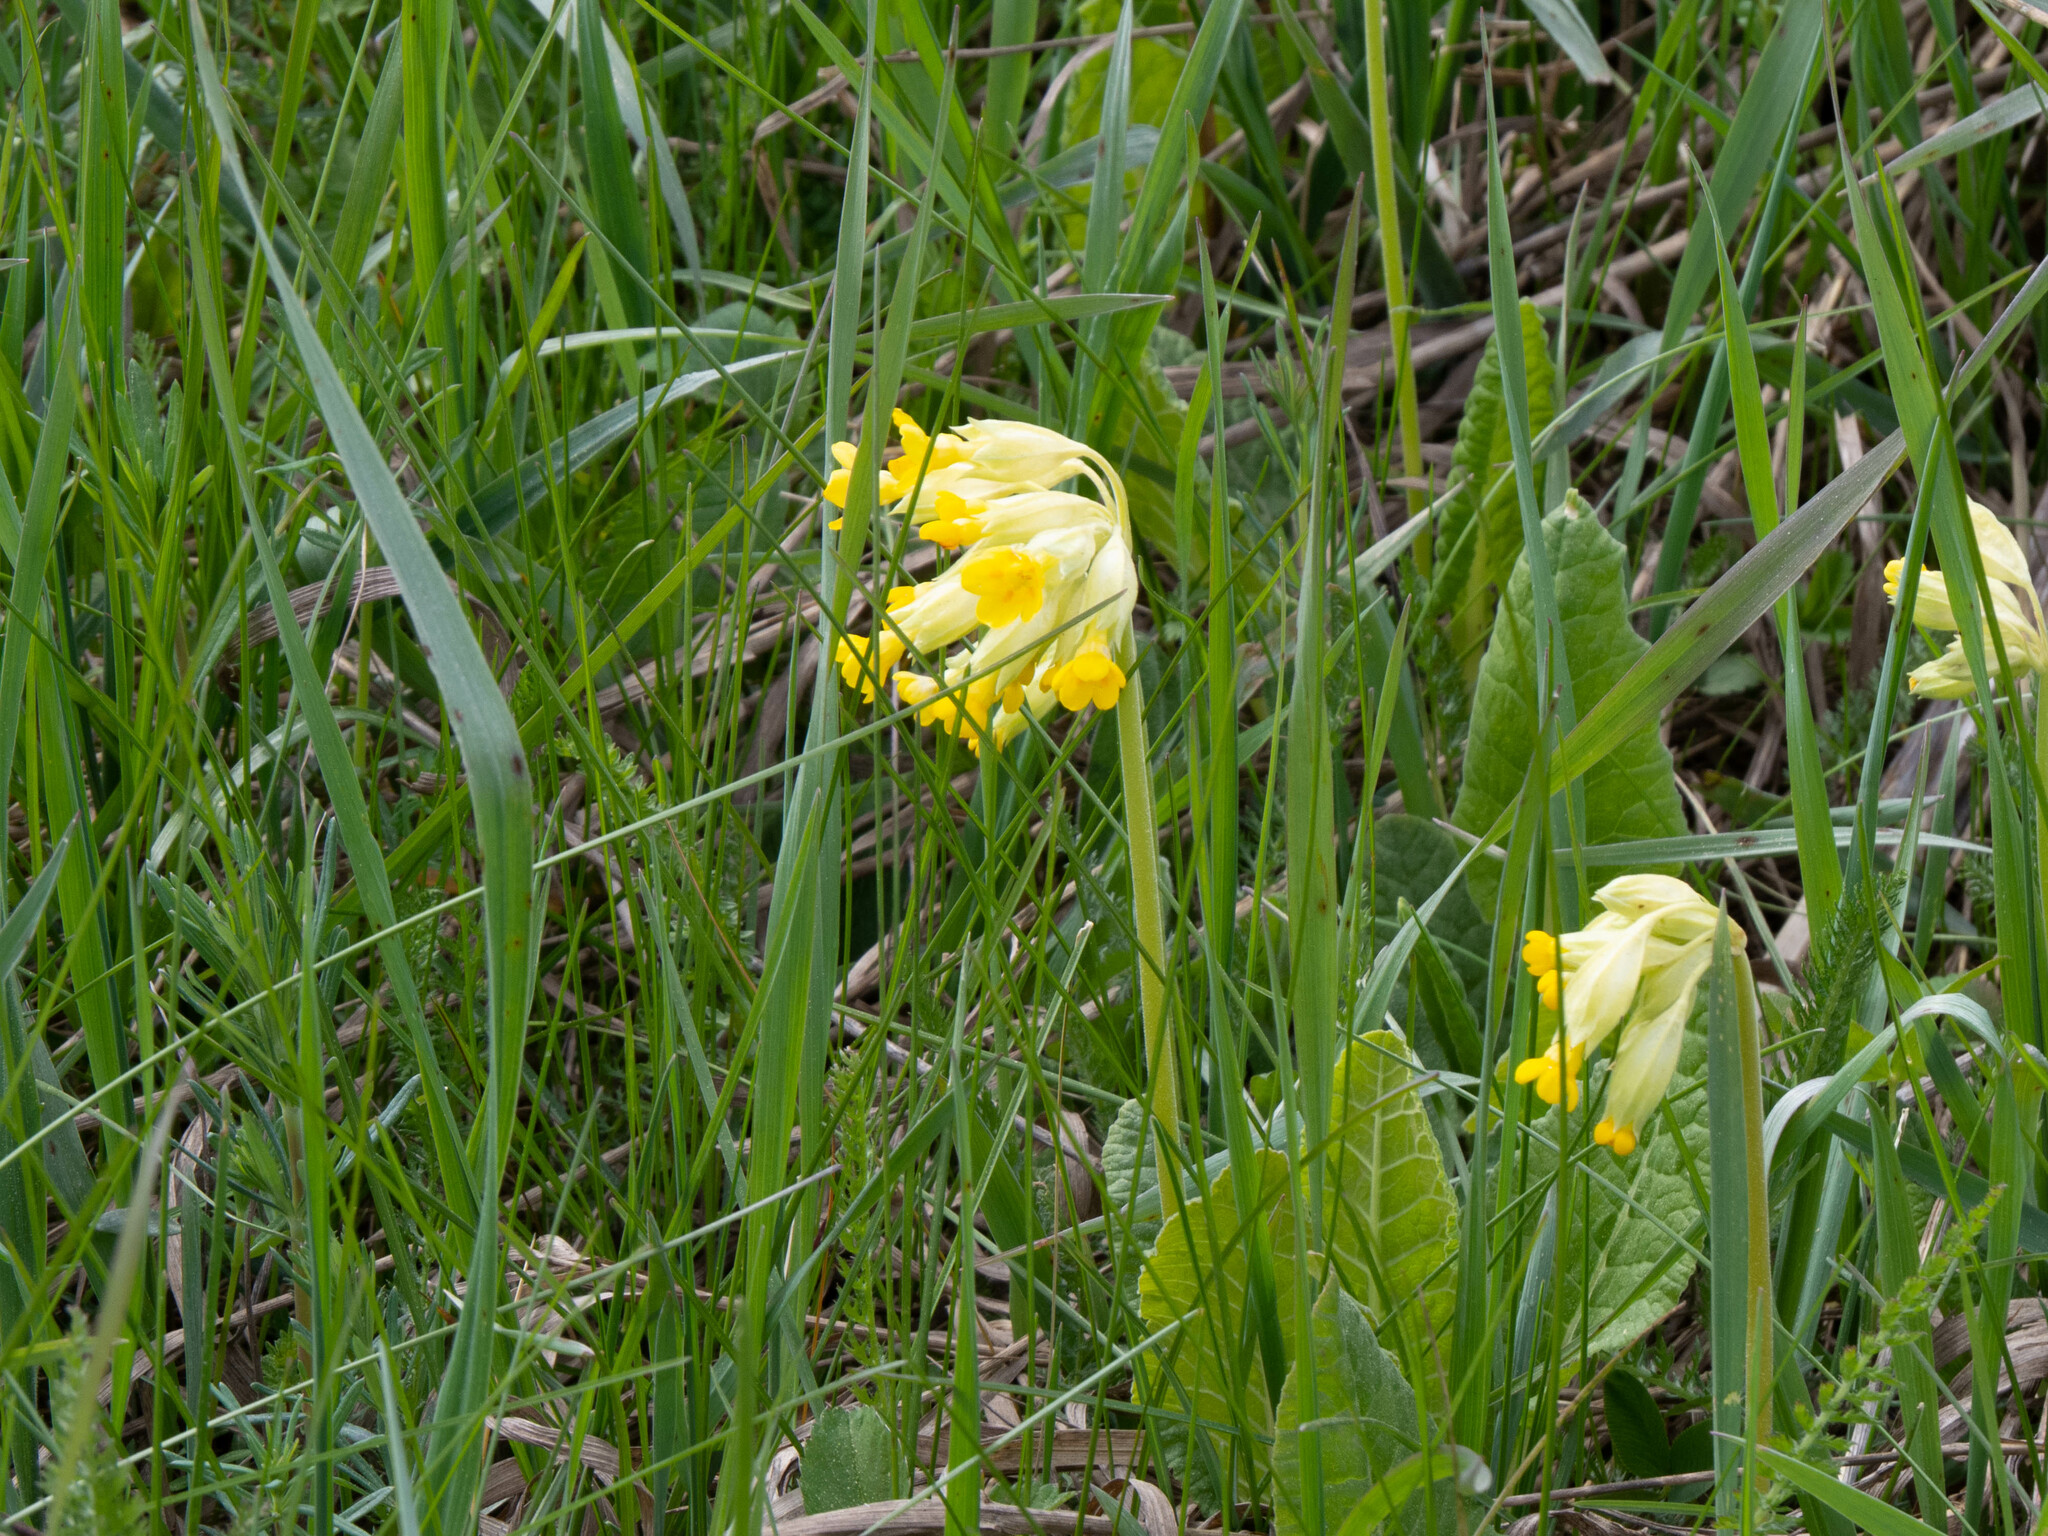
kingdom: Plantae
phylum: Tracheophyta
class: Magnoliopsida
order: Ericales
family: Primulaceae
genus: Primula
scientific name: Primula veris
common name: Cowslip
